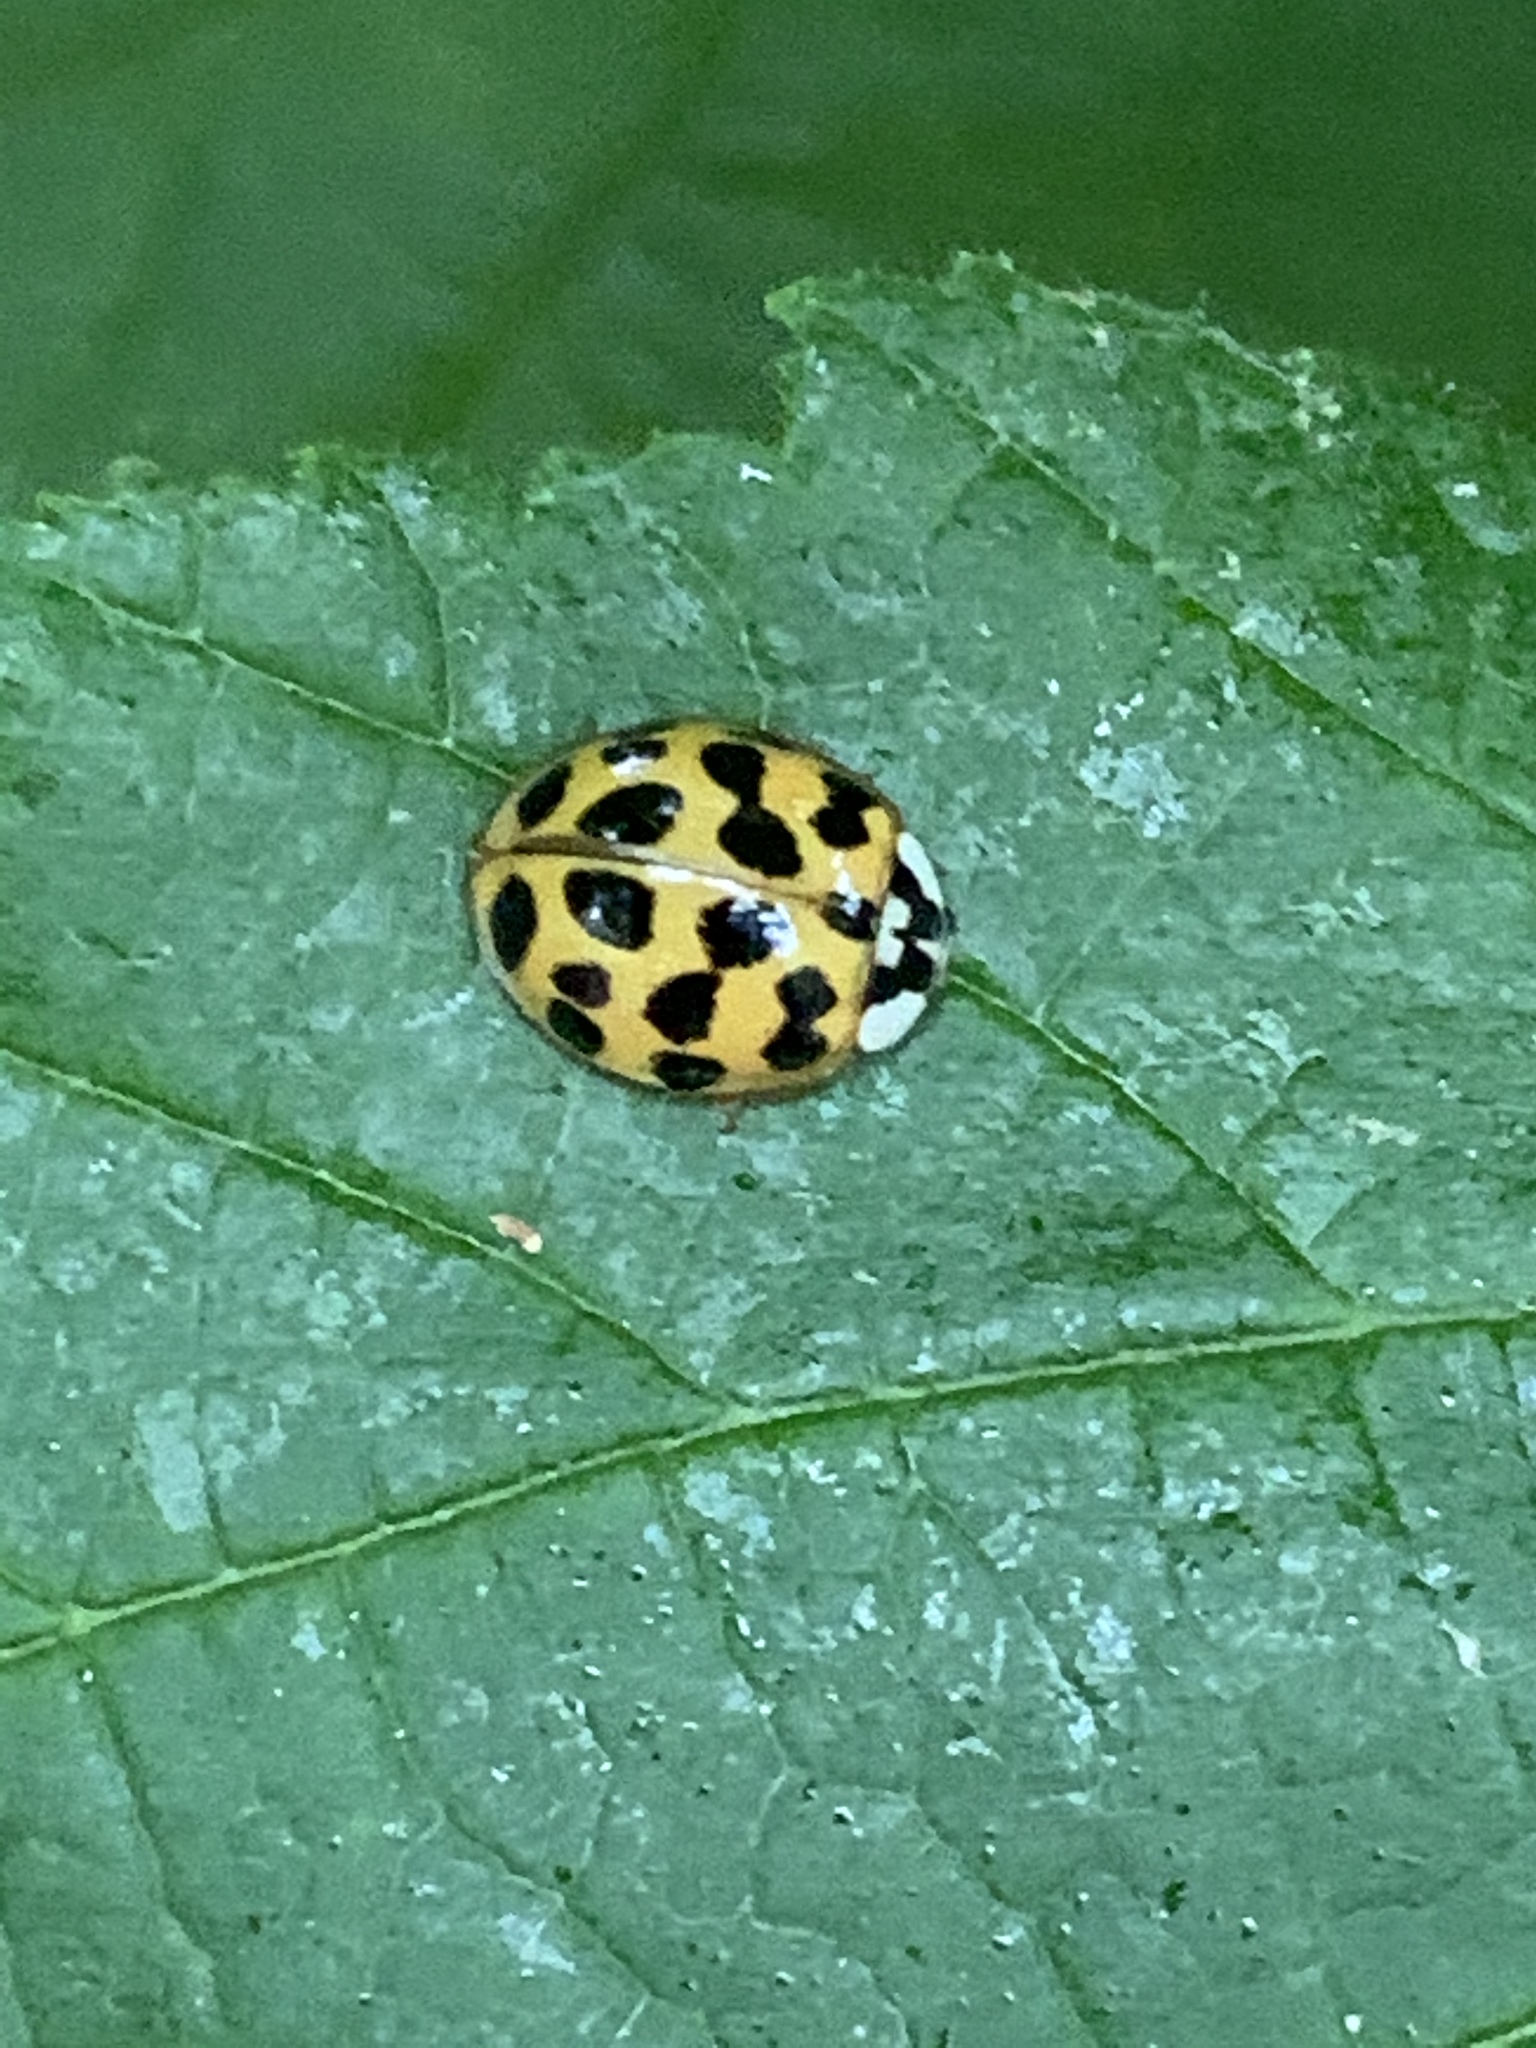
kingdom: Animalia
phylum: Arthropoda
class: Insecta
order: Coleoptera
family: Coccinellidae
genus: Harmonia
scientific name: Harmonia axyridis
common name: Harlequin ladybird
